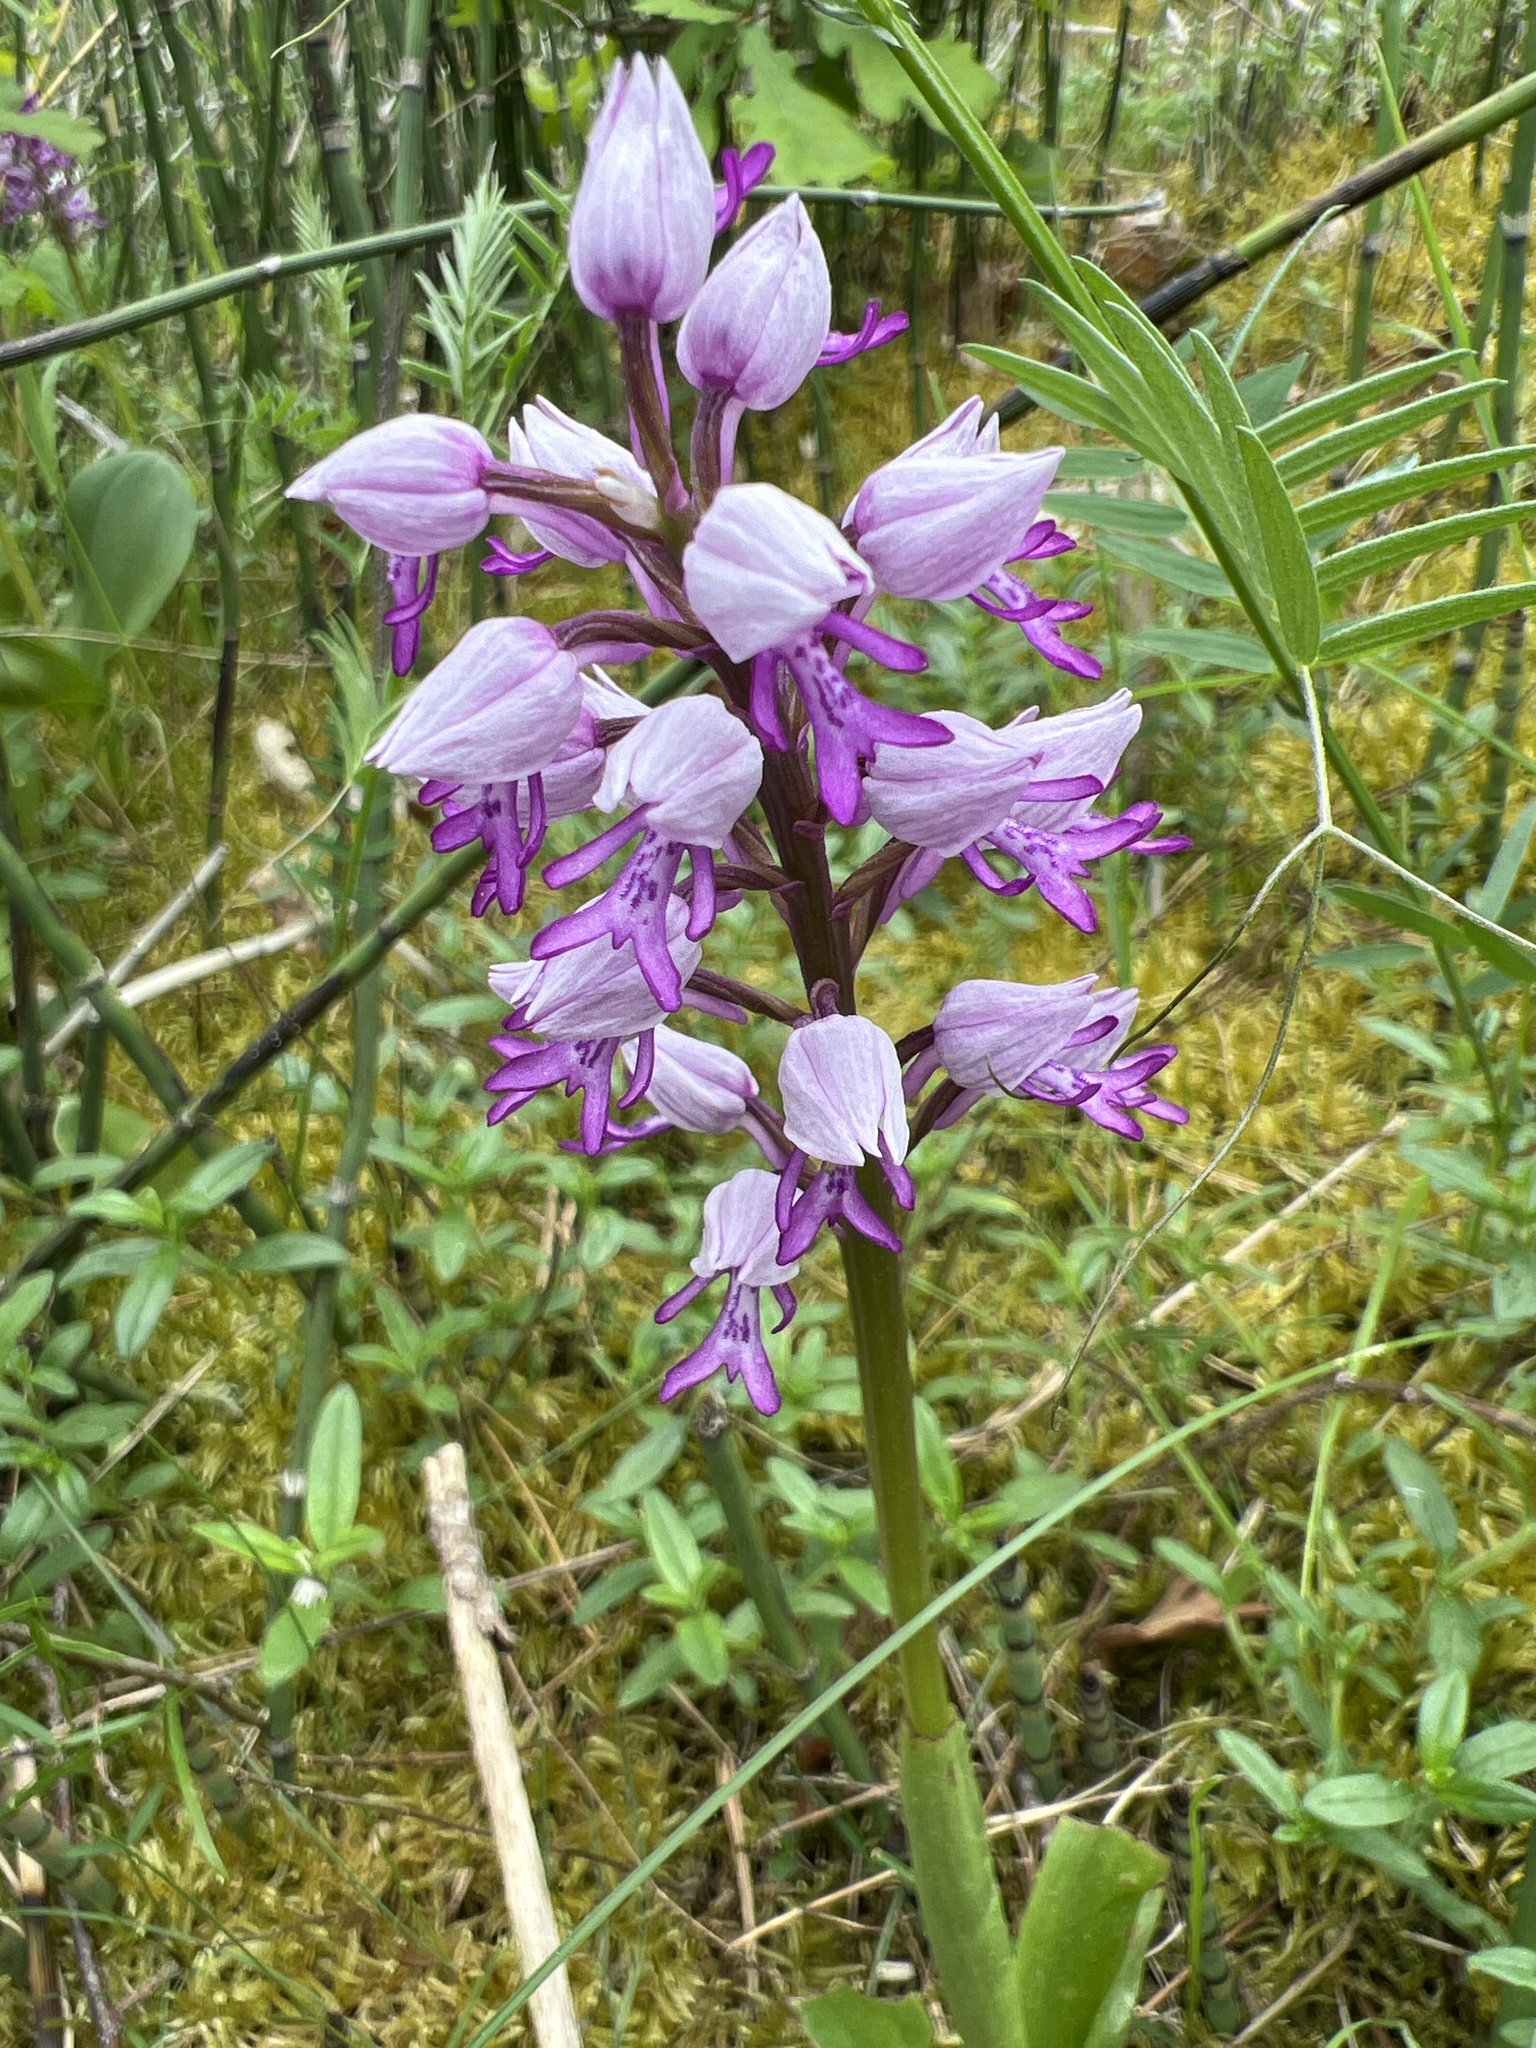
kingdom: Plantae
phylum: Tracheophyta
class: Liliopsida
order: Asparagales
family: Orchidaceae
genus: Orchis
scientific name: Orchis militaris
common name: Military orchid
